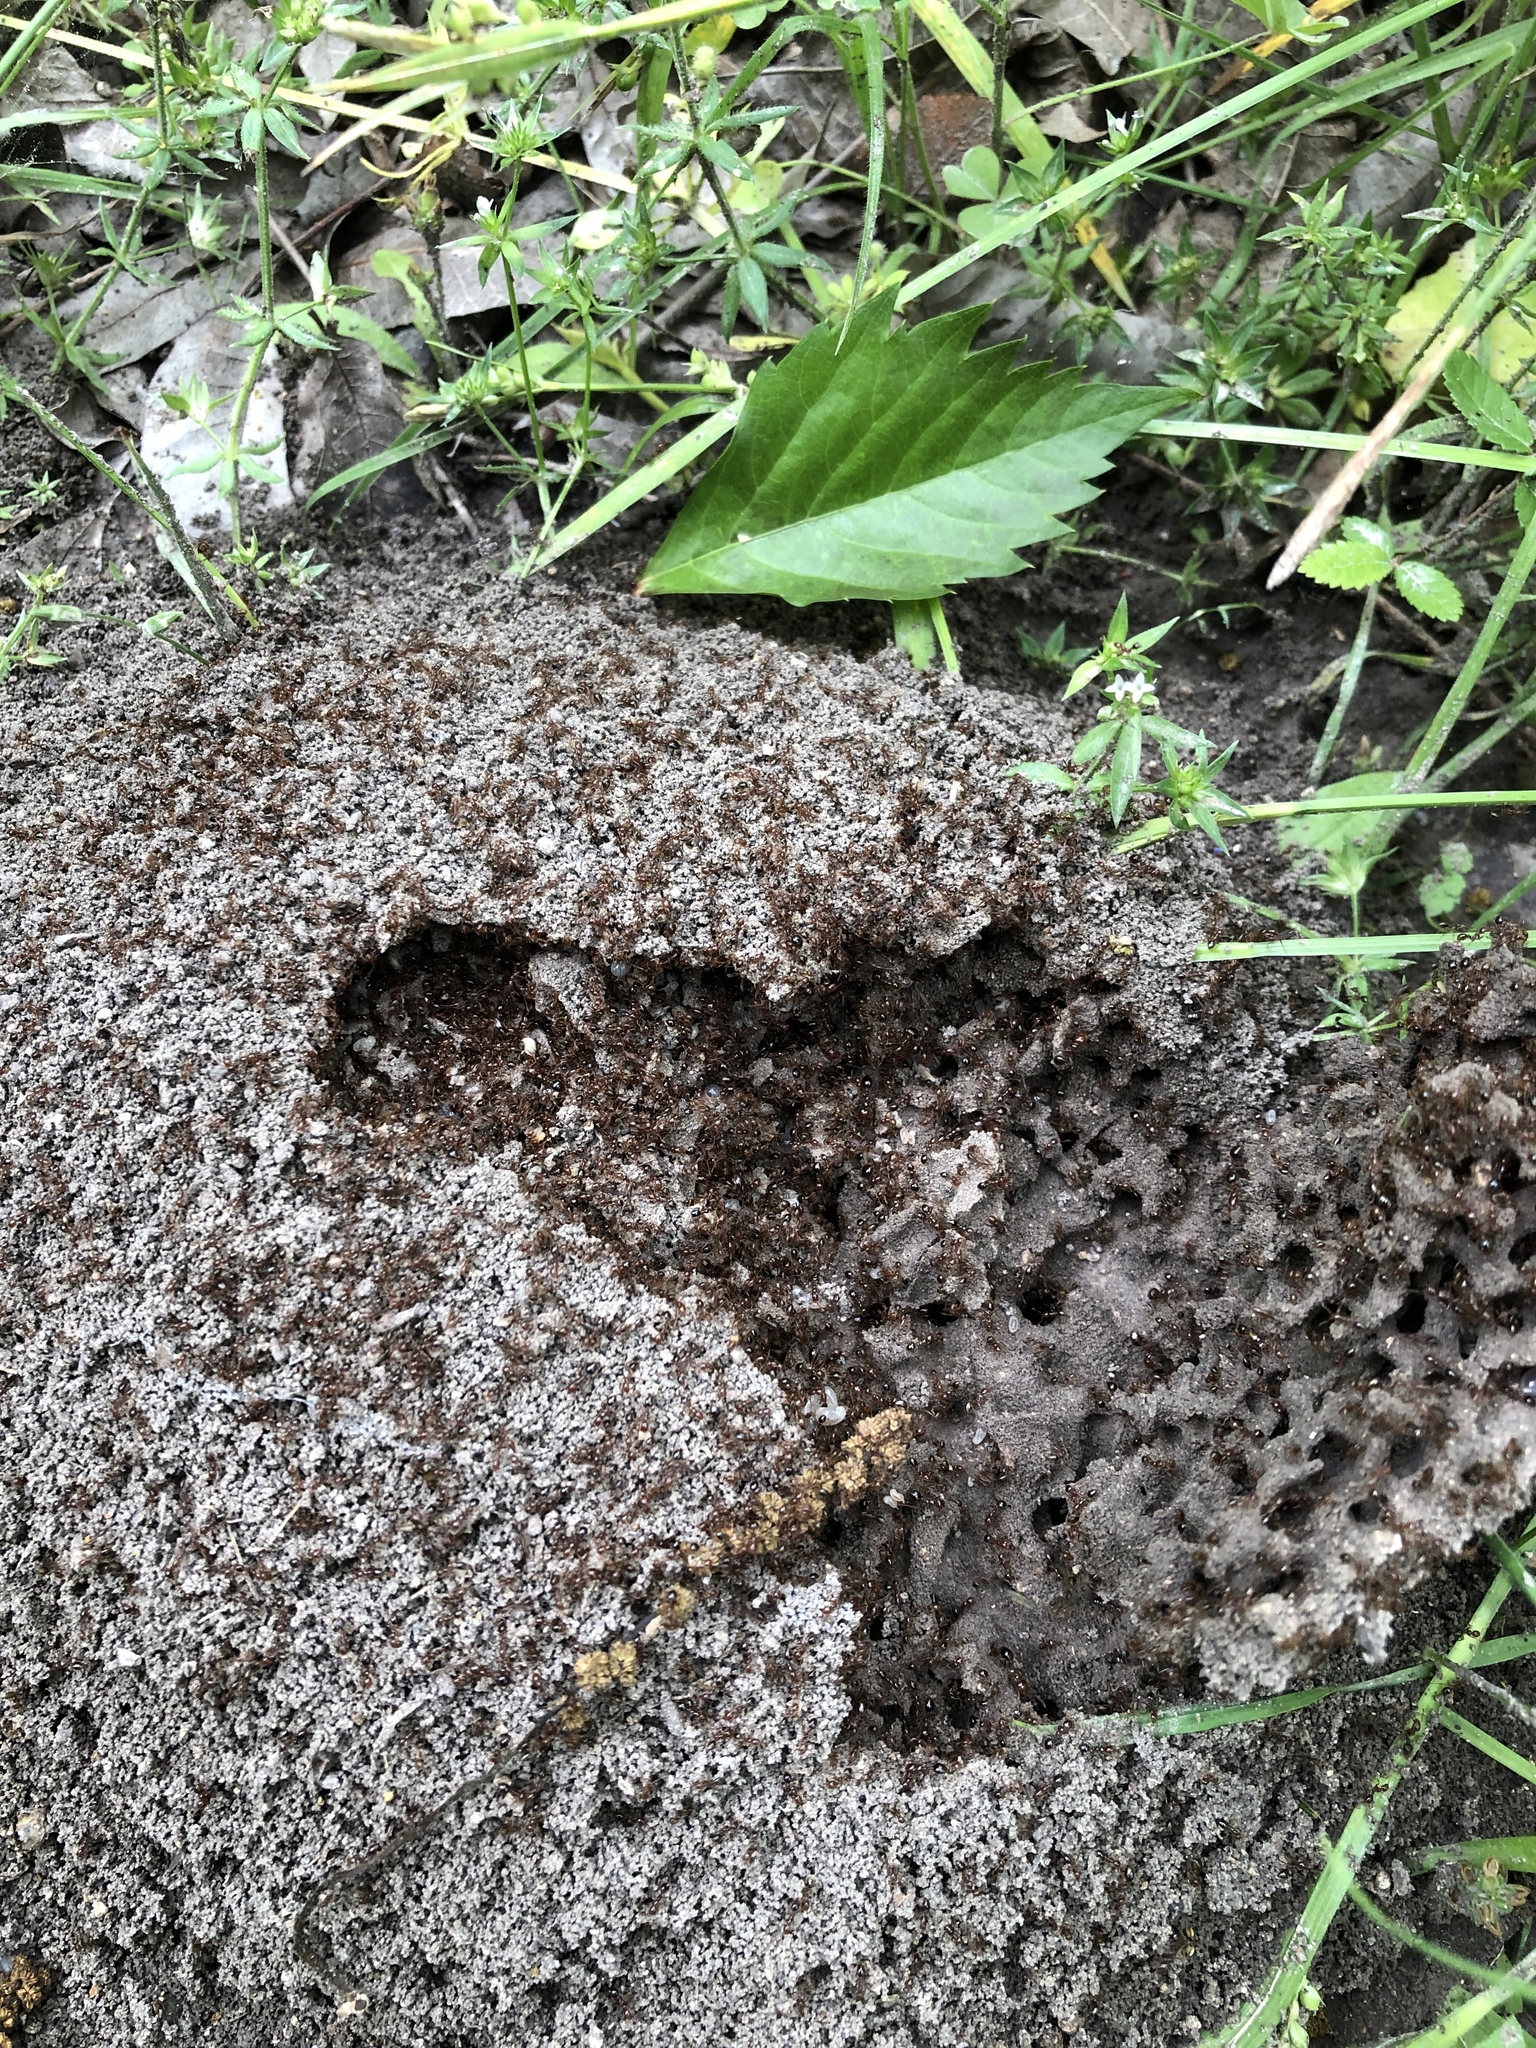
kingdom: Animalia
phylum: Arthropoda
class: Insecta
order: Hymenoptera
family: Formicidae
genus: Solenopsis
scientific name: Solenopsis invicta
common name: Red imported fire ant
